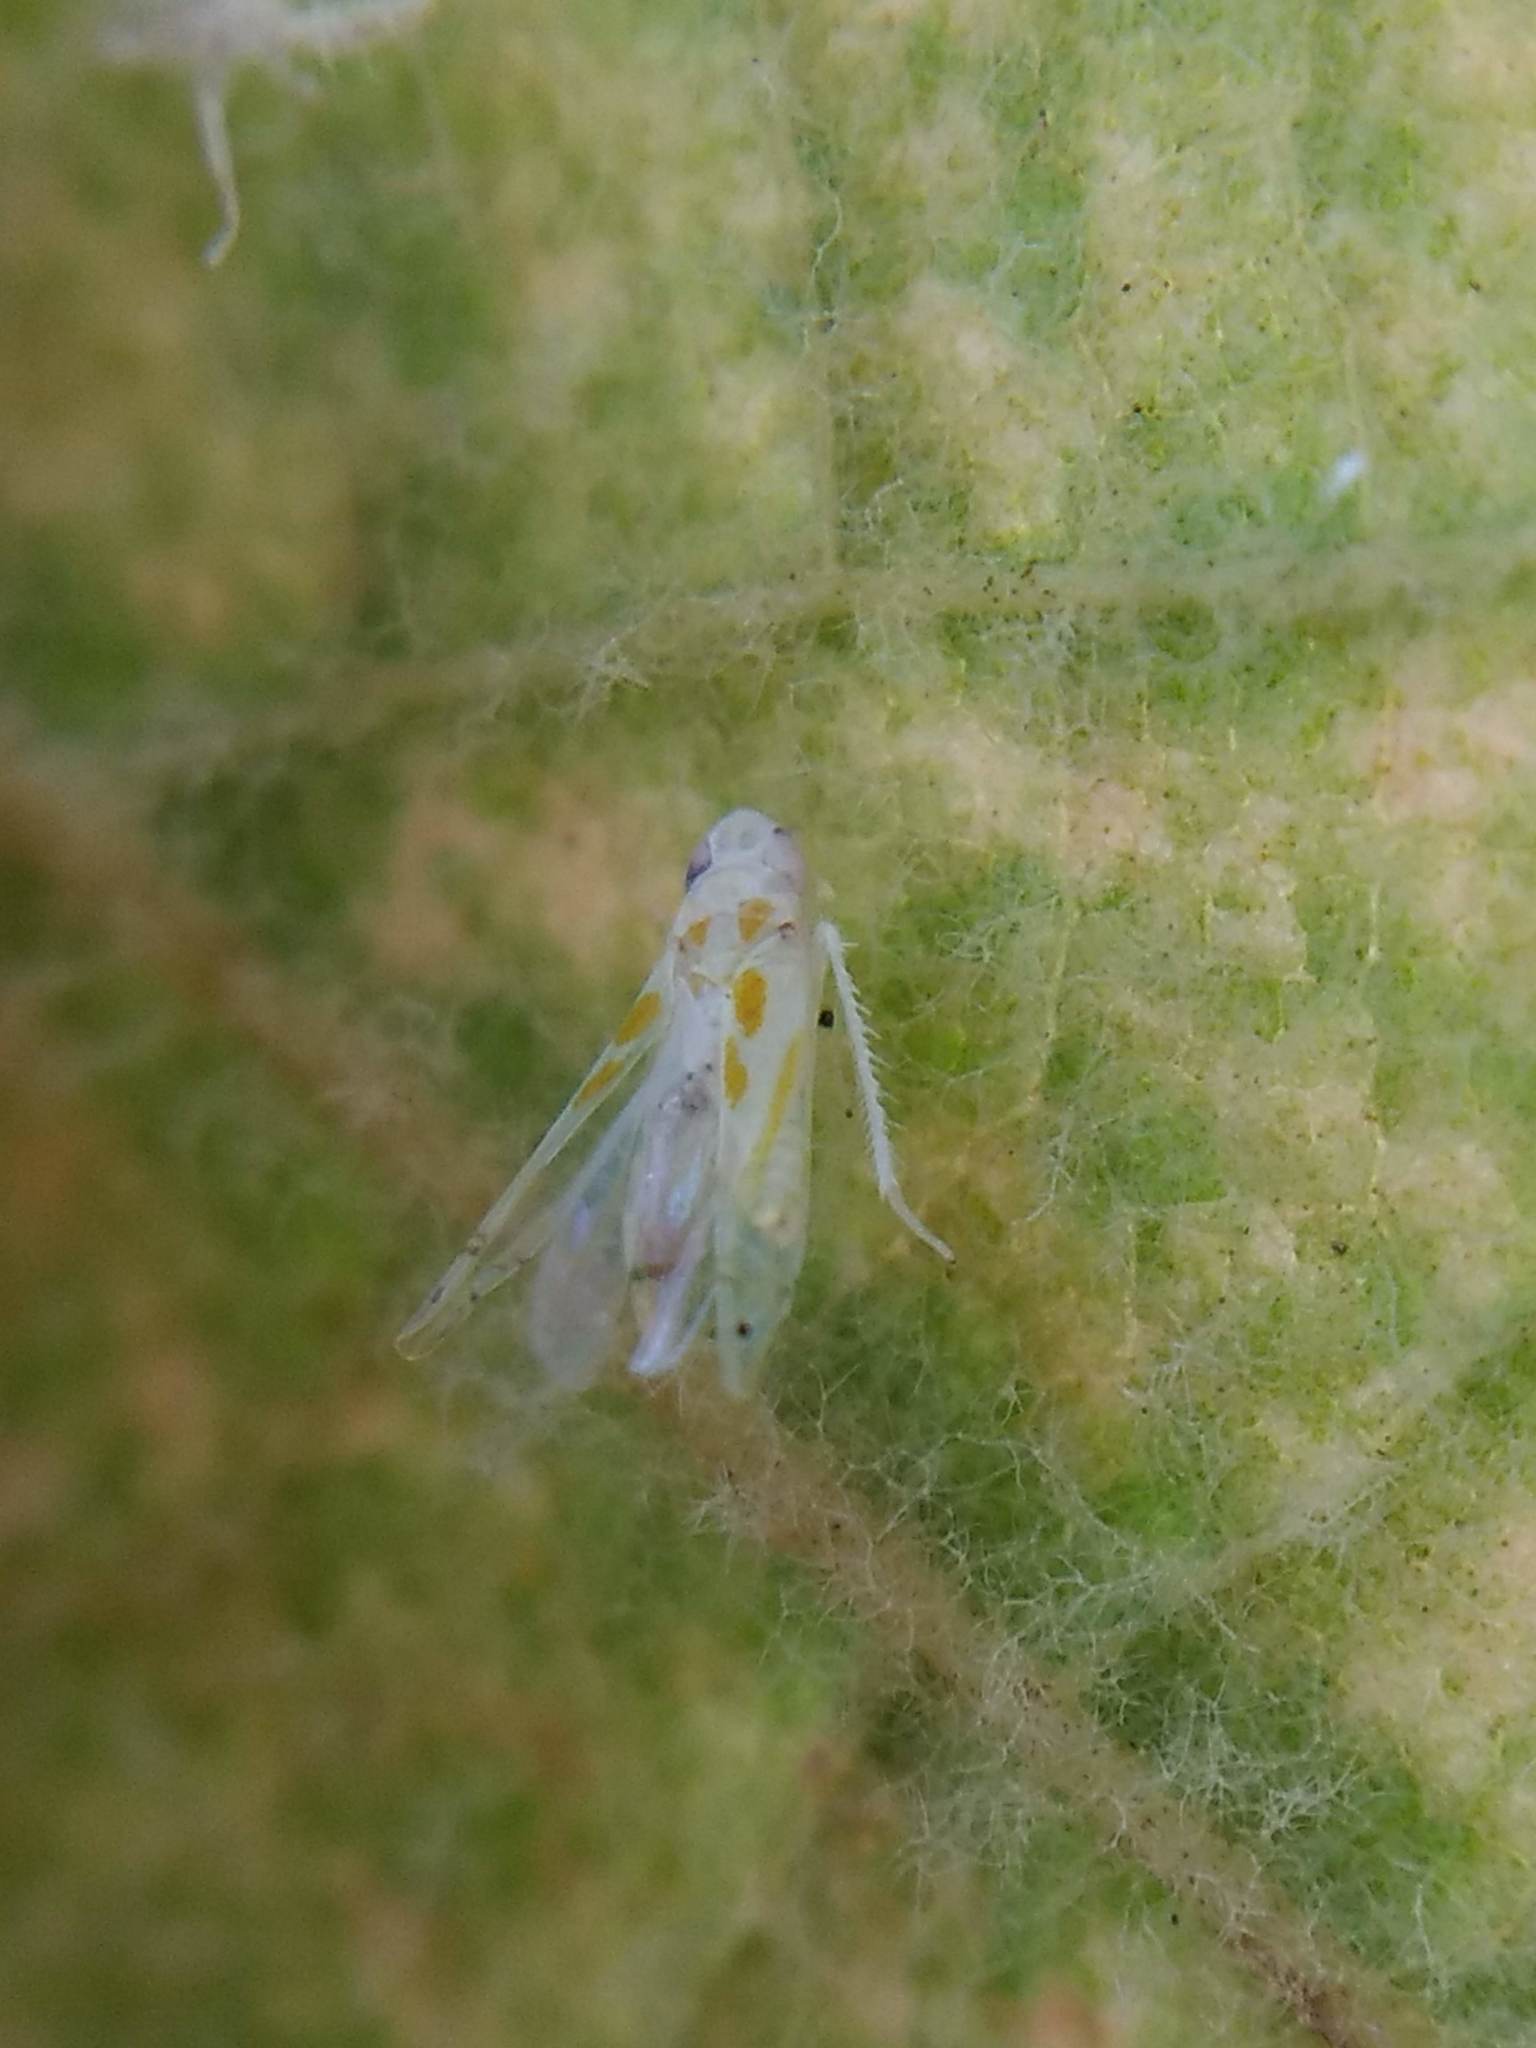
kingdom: Animalia
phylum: Arthropoda
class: Insecta
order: Hemiptera
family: Cicadellidae
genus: Alconeura
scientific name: Alconeura quadrimaculata
